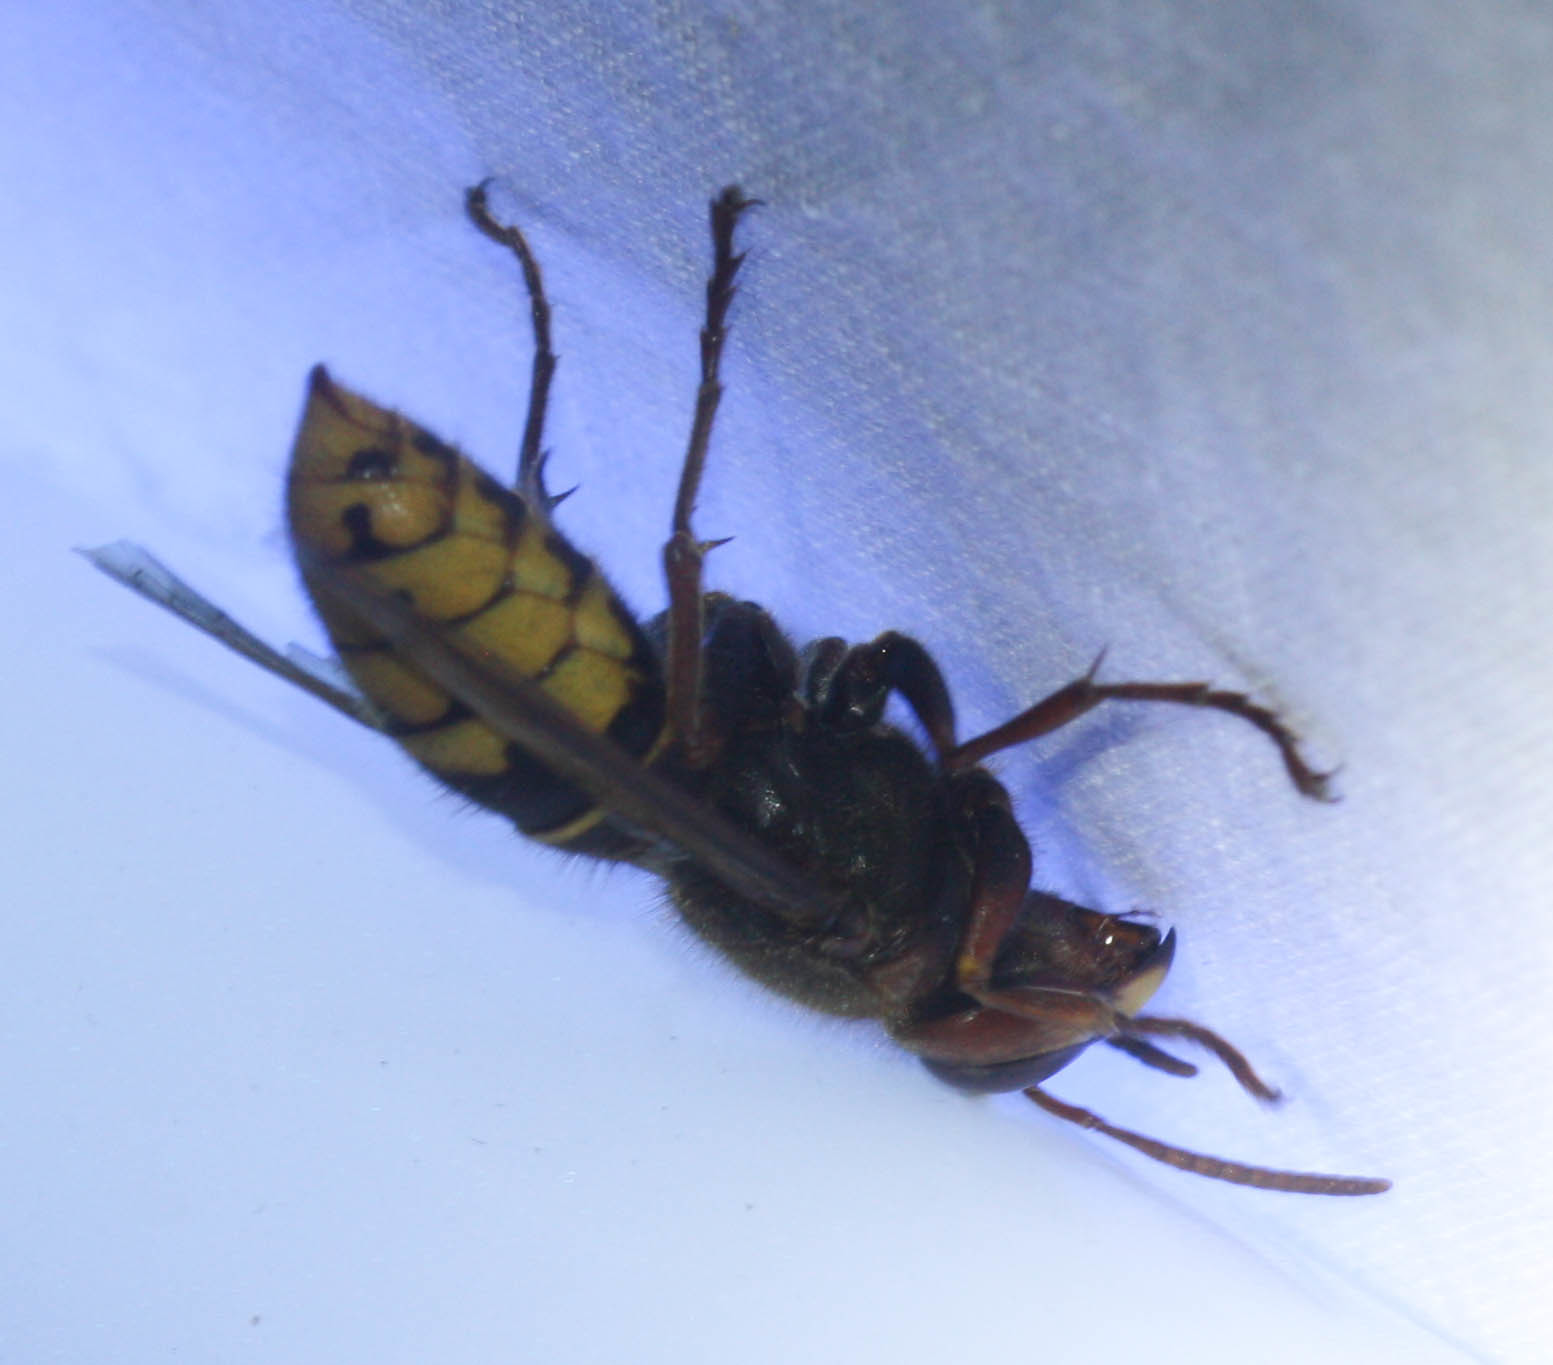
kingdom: Animalia
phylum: Arthropoda
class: Insecta
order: Hymenoptera
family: Vespidae
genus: Vespa
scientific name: Vespa crabro
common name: Hornet
